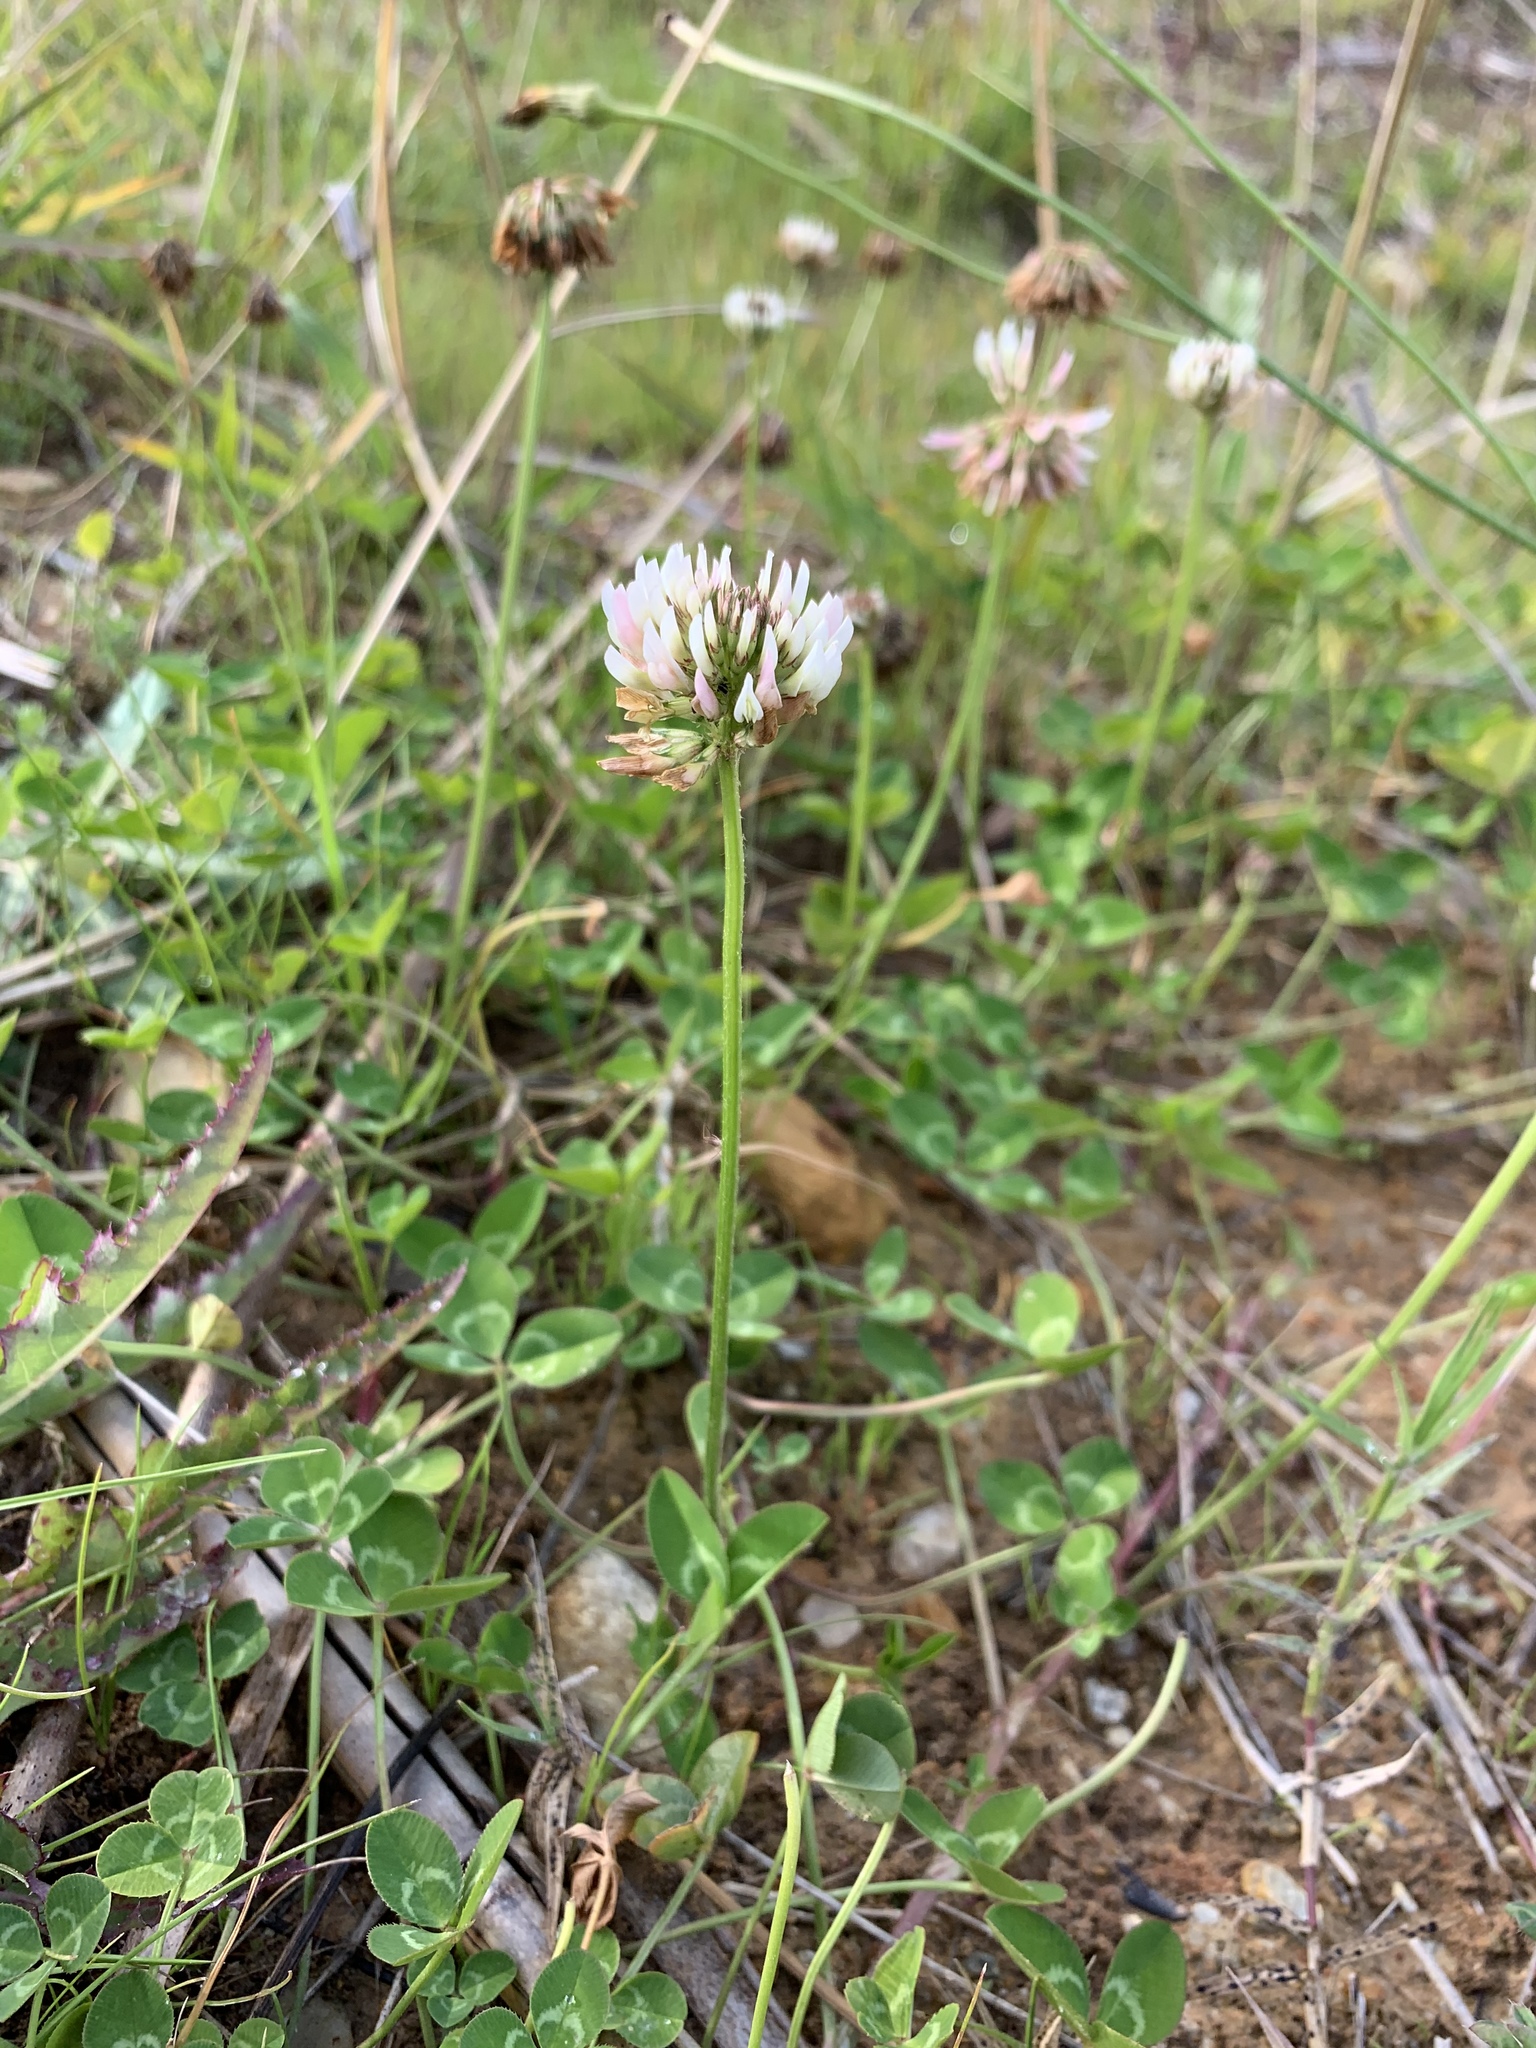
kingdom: Plantae
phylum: Tracheophyta
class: Magnoliopsida
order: Fabales
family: Fabaceae
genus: Trifolium
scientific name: Trifolium repens
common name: White clover
